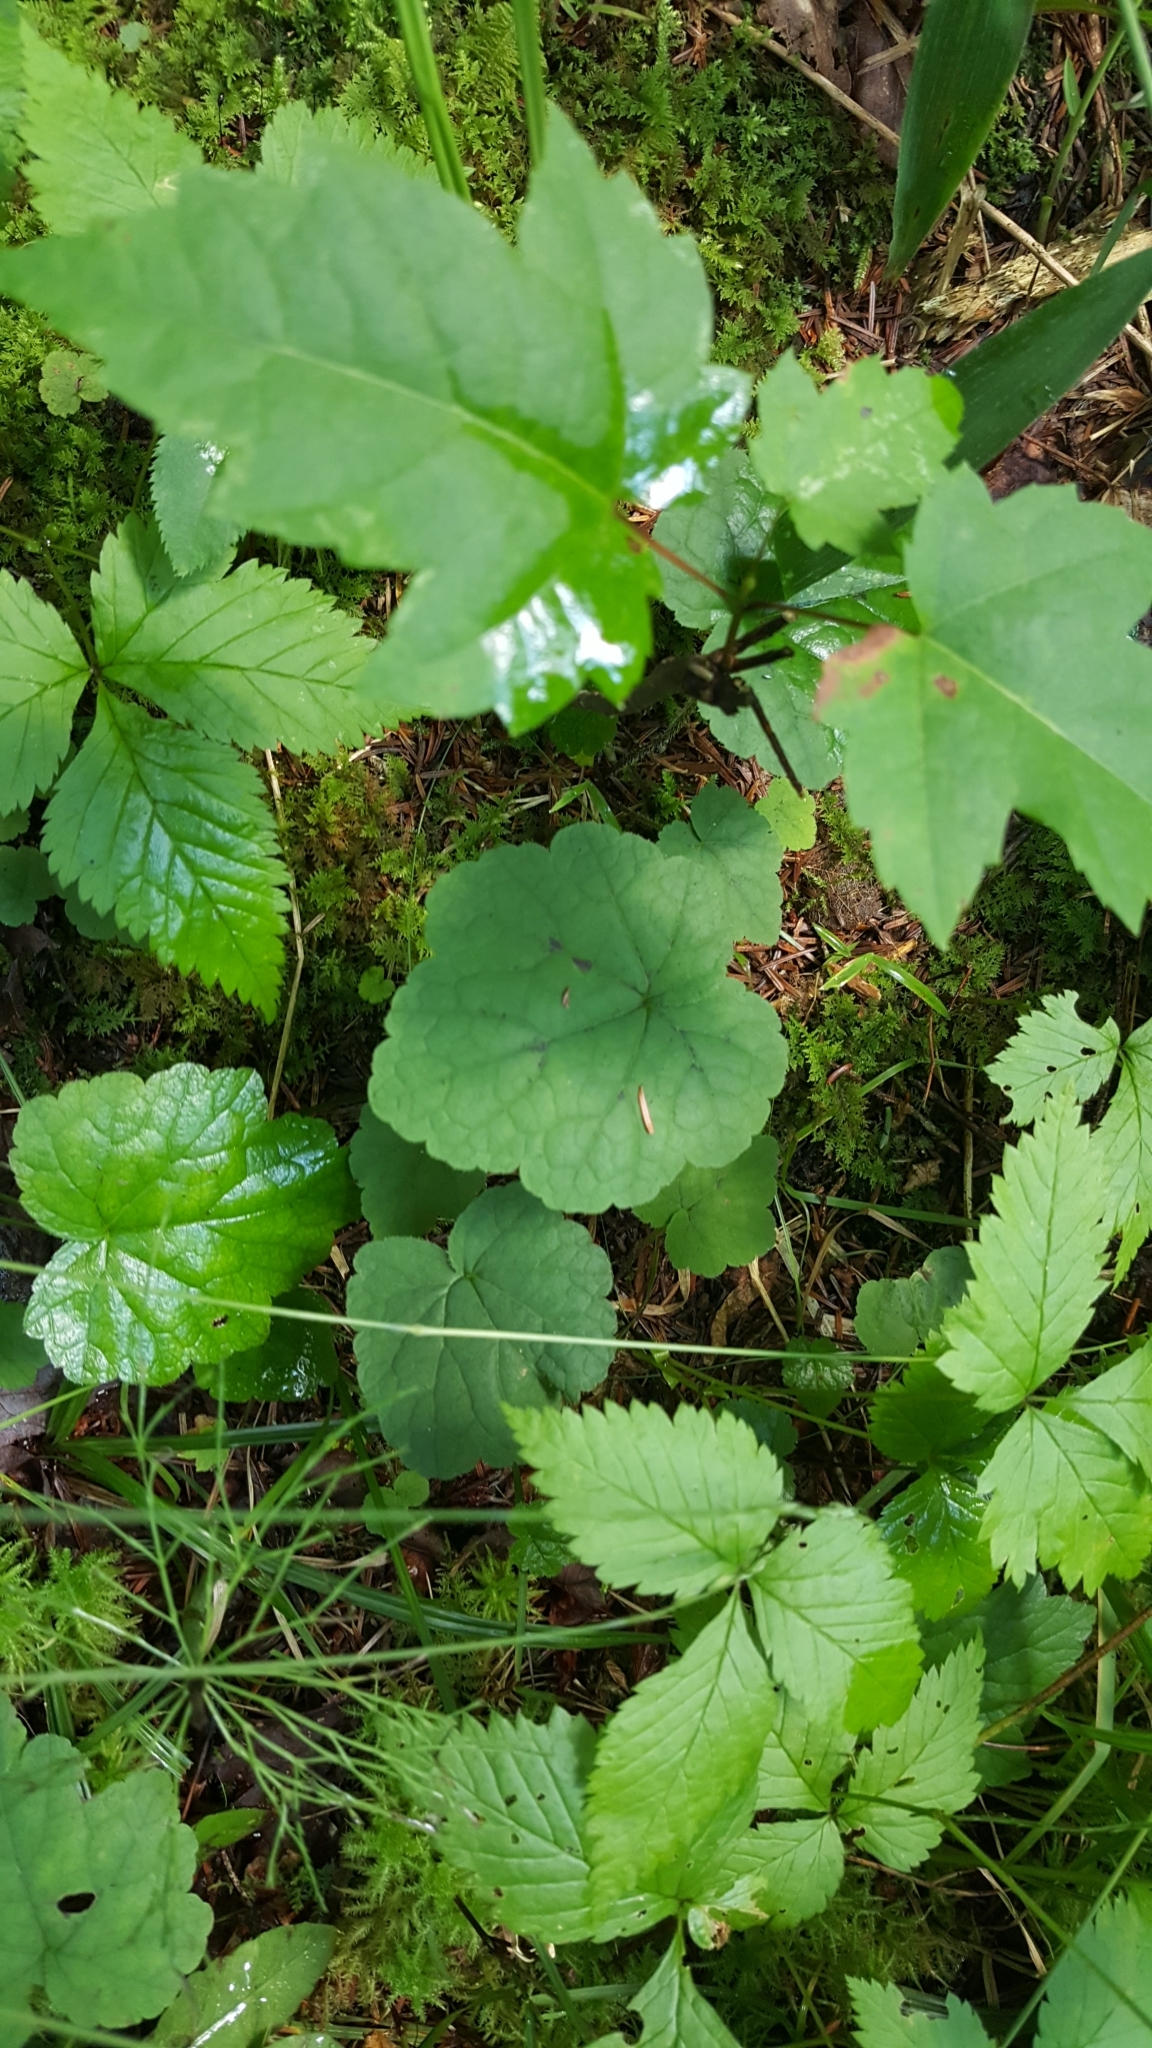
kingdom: Plantae
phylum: Tracheophyta
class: Magnoliopsida
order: Saxifragales
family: Saxifragaceae
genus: Tiarella
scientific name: Tiarella stolonifera
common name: Stoloniferous foamflower
